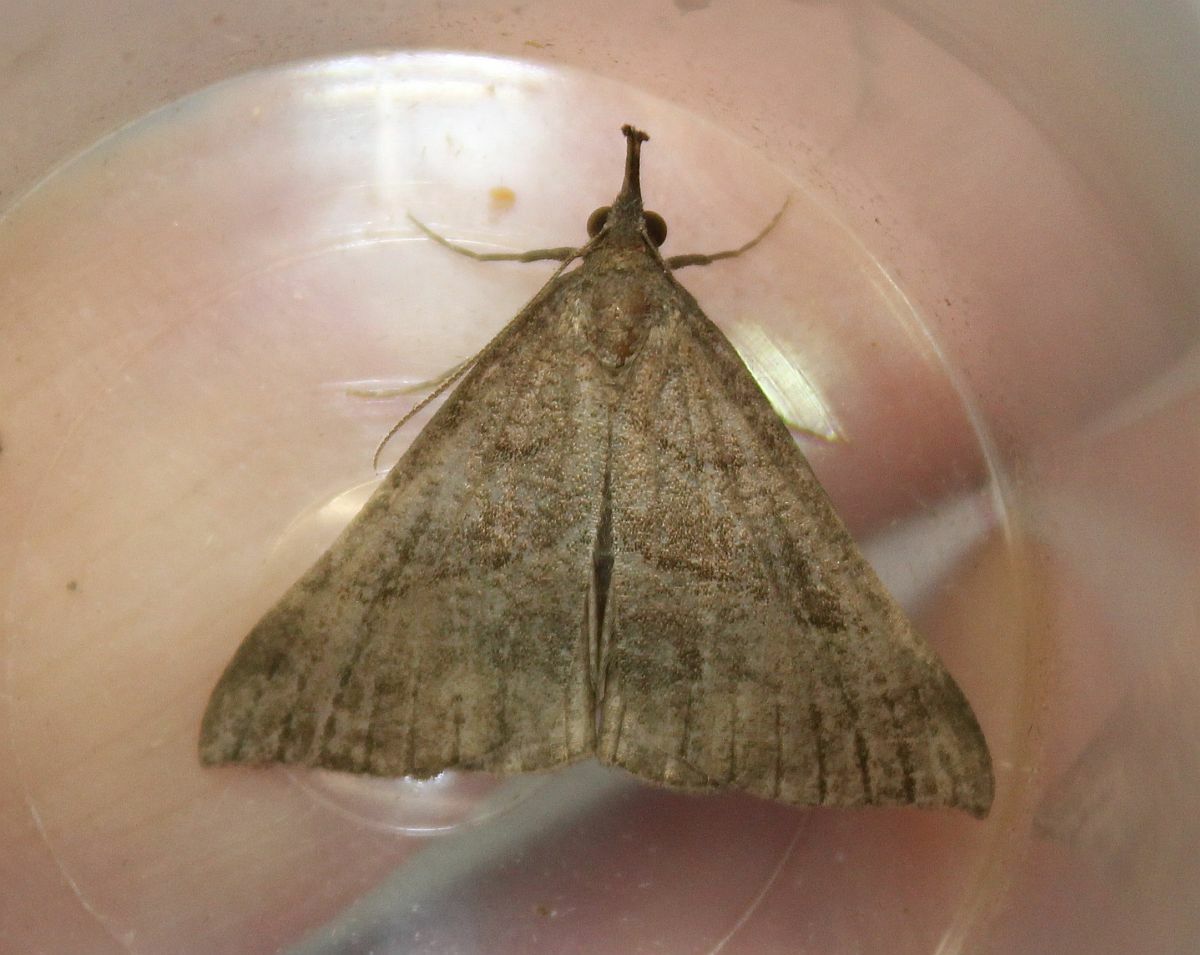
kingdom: Animalia
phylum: Arthropoda
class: Insecta
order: Lepidoptera
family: Erebidae
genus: Hypena
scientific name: Hypena proboscidalis
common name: Snout
